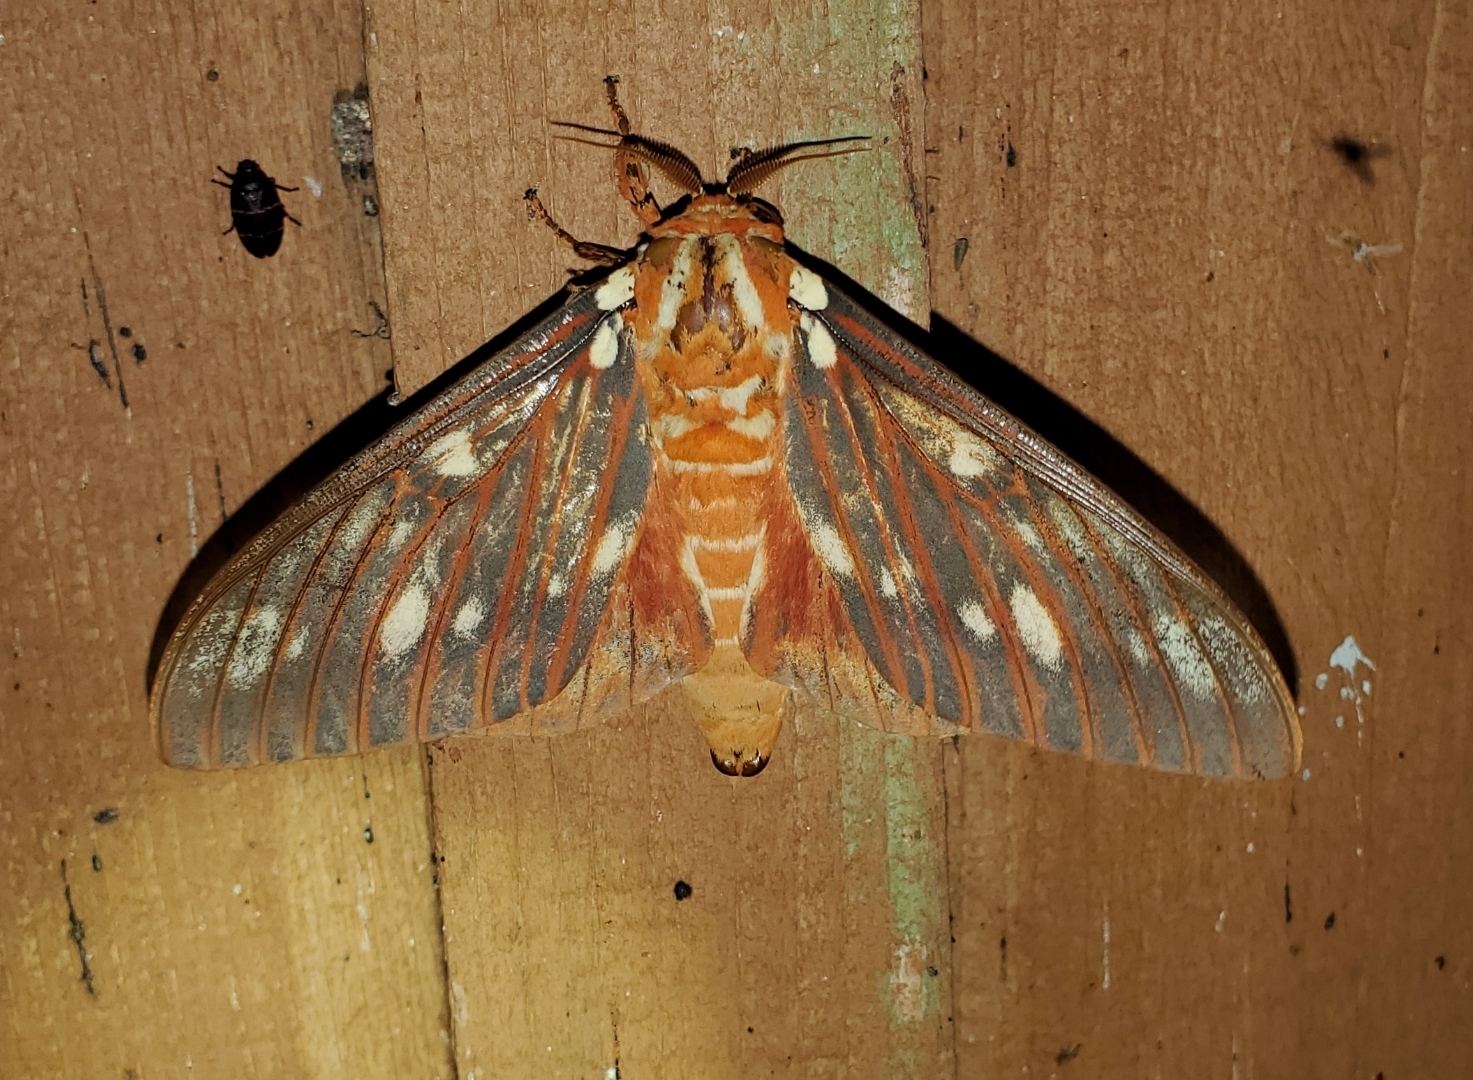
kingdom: Animalia
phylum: Arthropoda
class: Insecta
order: Lepidoptera
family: Saturniidae
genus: Citheronia
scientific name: Citheronia regalis
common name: Hickory horned devil
